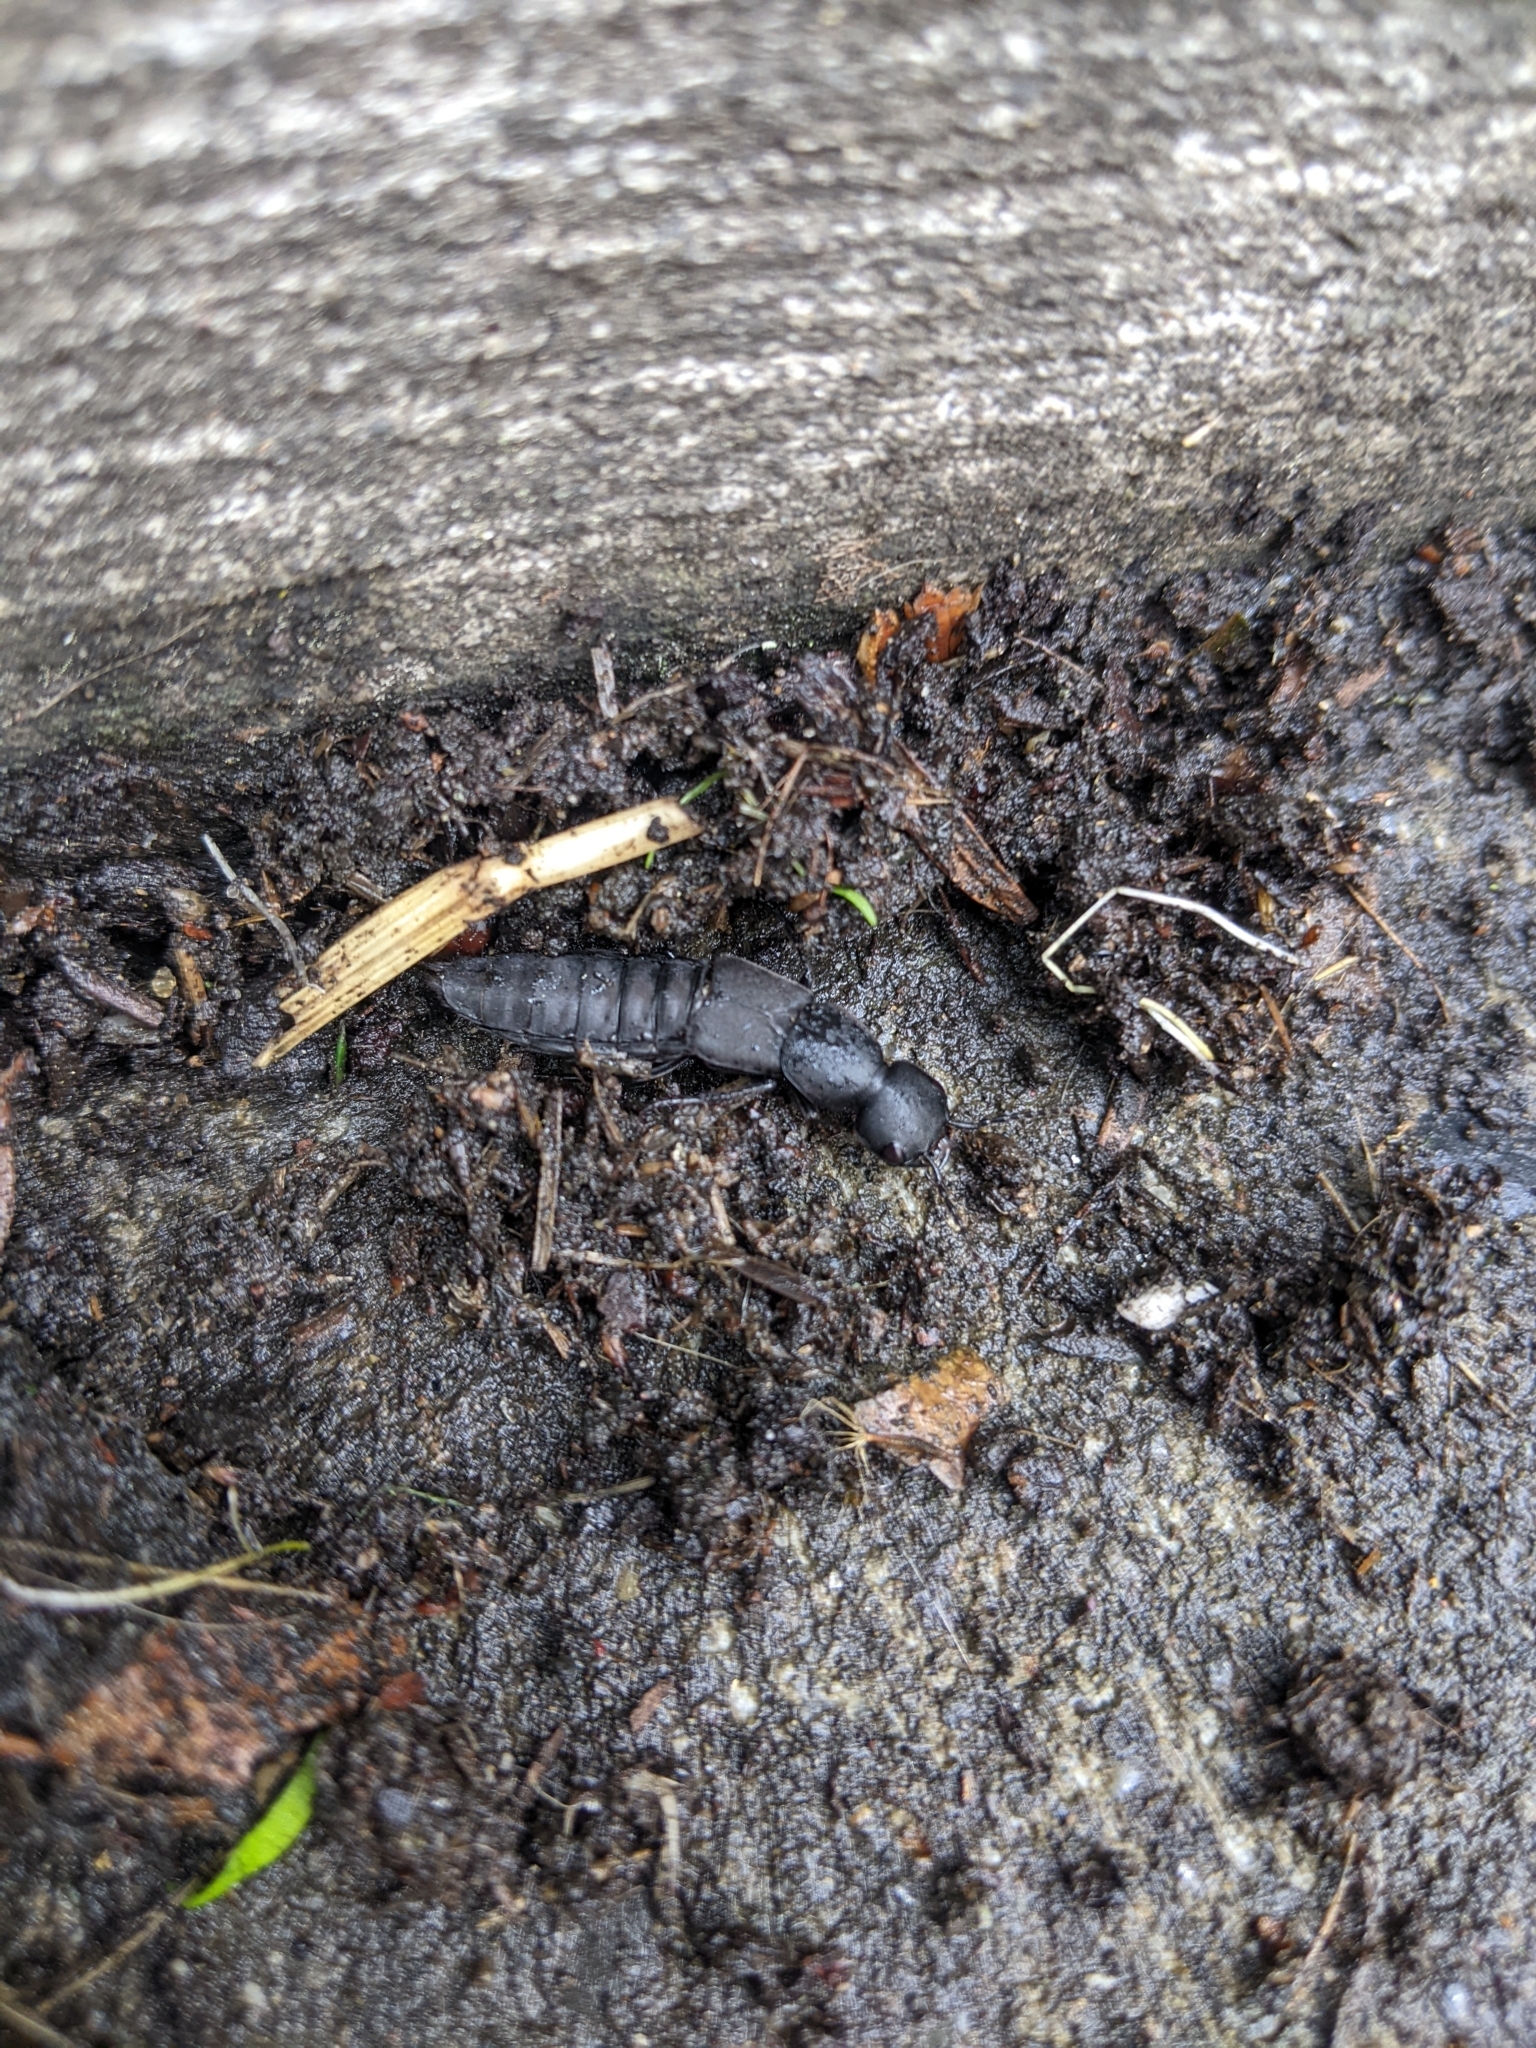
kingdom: Animalia
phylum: Arthropoda
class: Insecta
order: Coleoptera
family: Staphylinidae
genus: Ocypus
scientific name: Ocypus olens
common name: Devil's coach-horse
